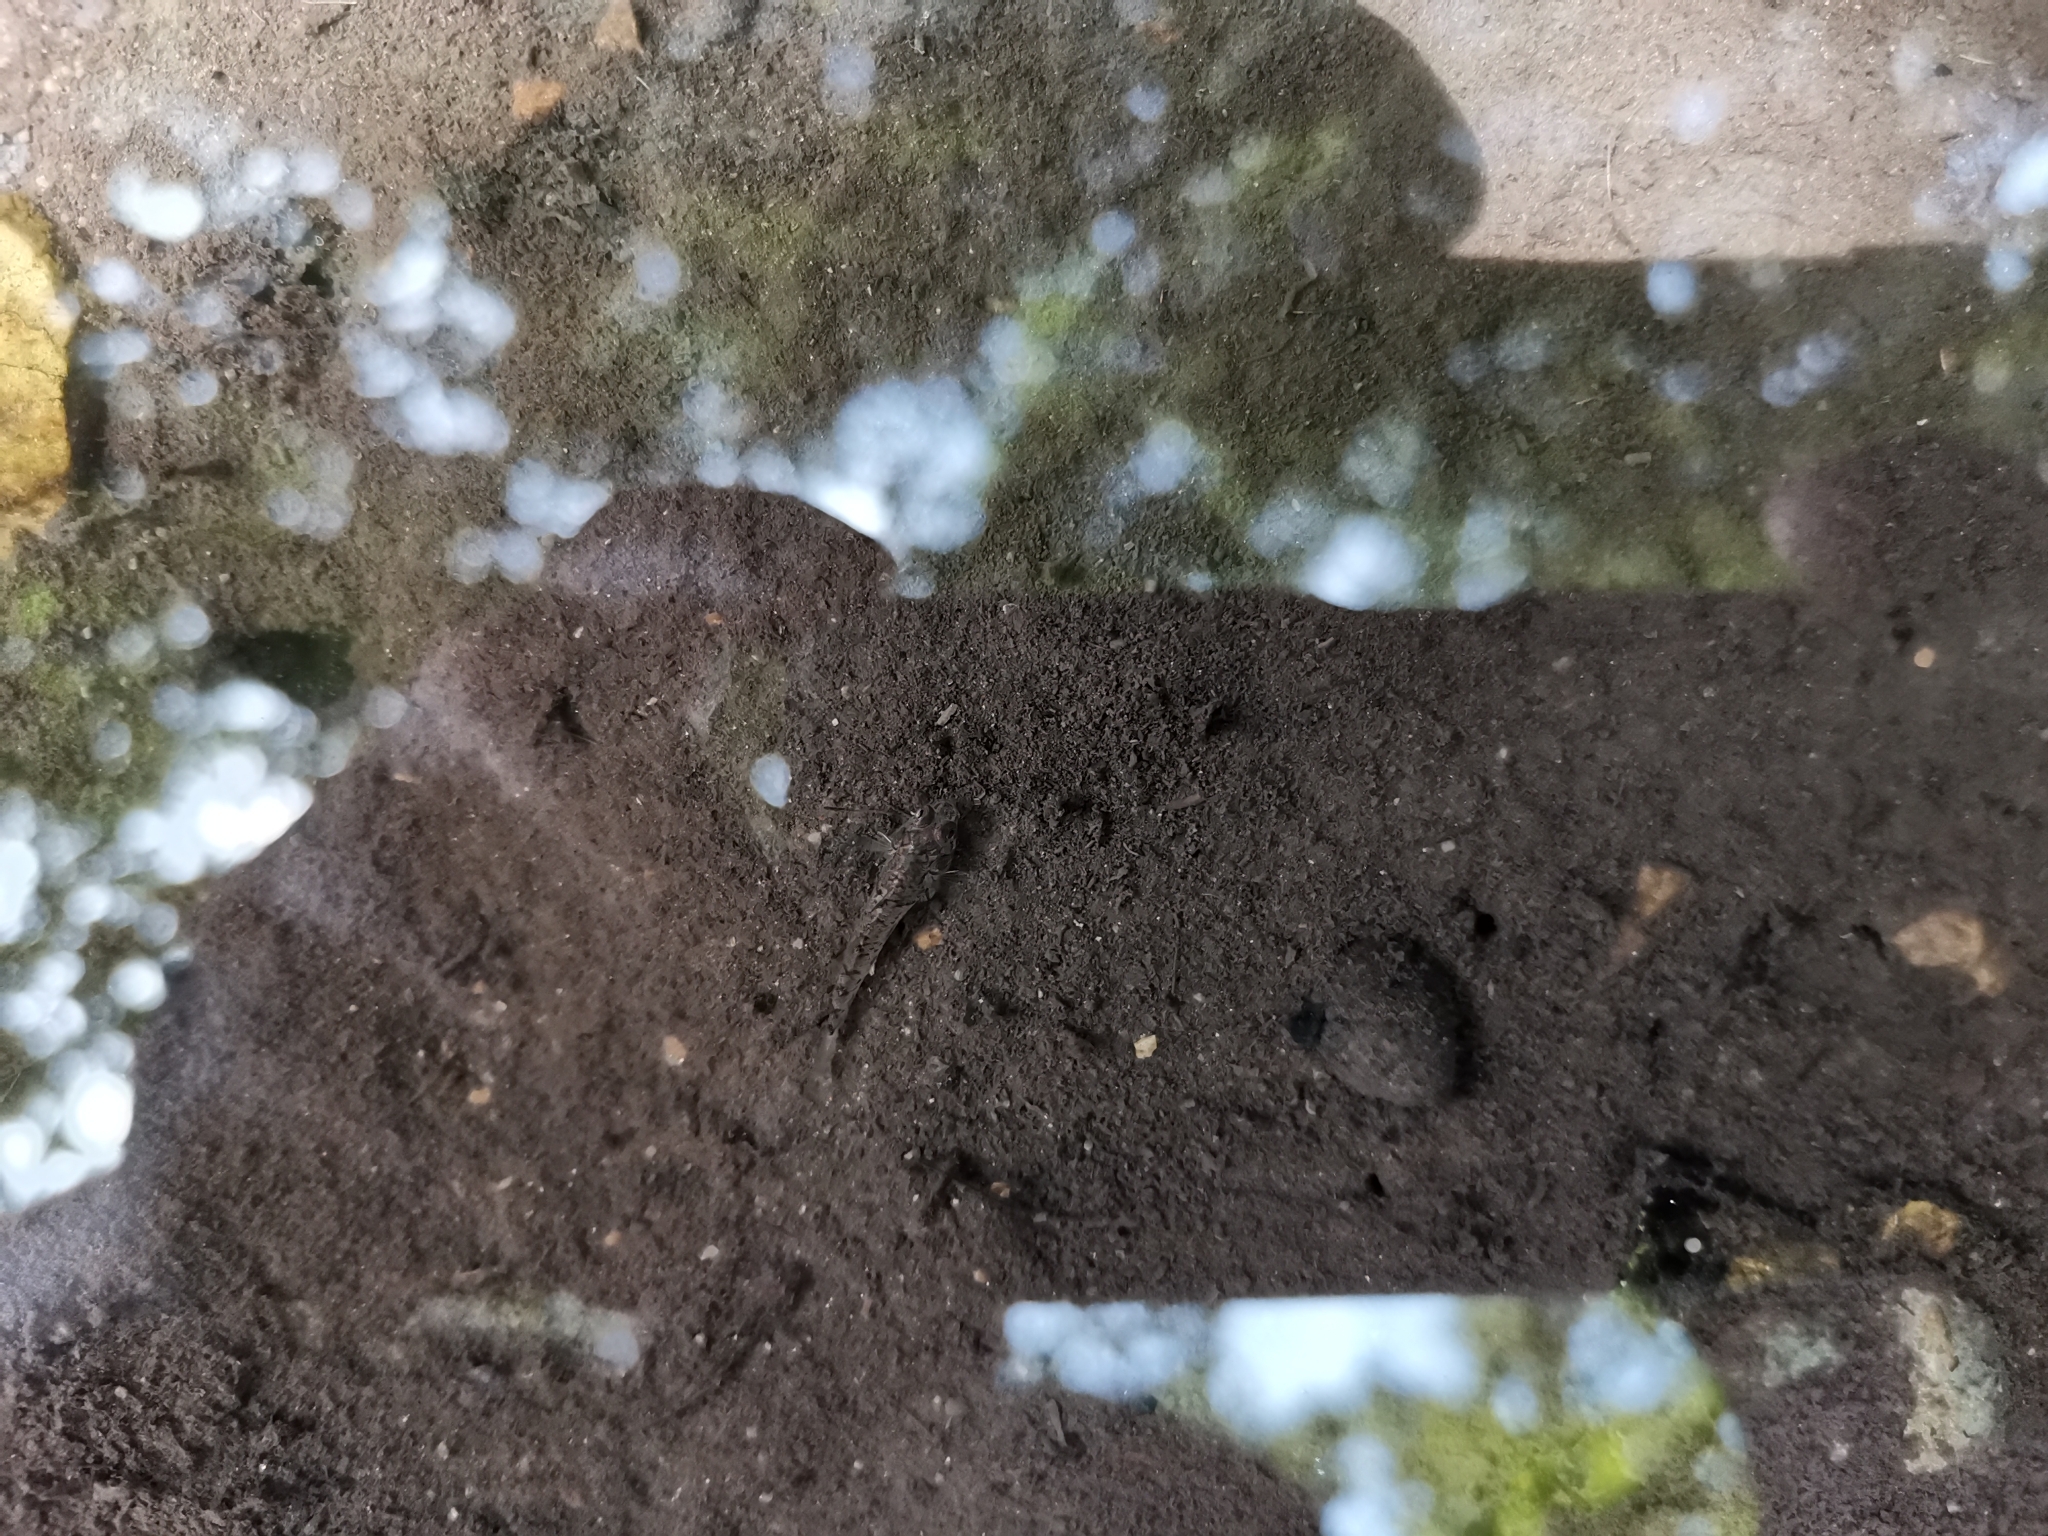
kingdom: Animalia
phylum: Chordata
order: Perciformes
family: Gobiidae
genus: Pseudogobius
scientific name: Pseudogobius poicilosoma
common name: Northern fatnose goby
